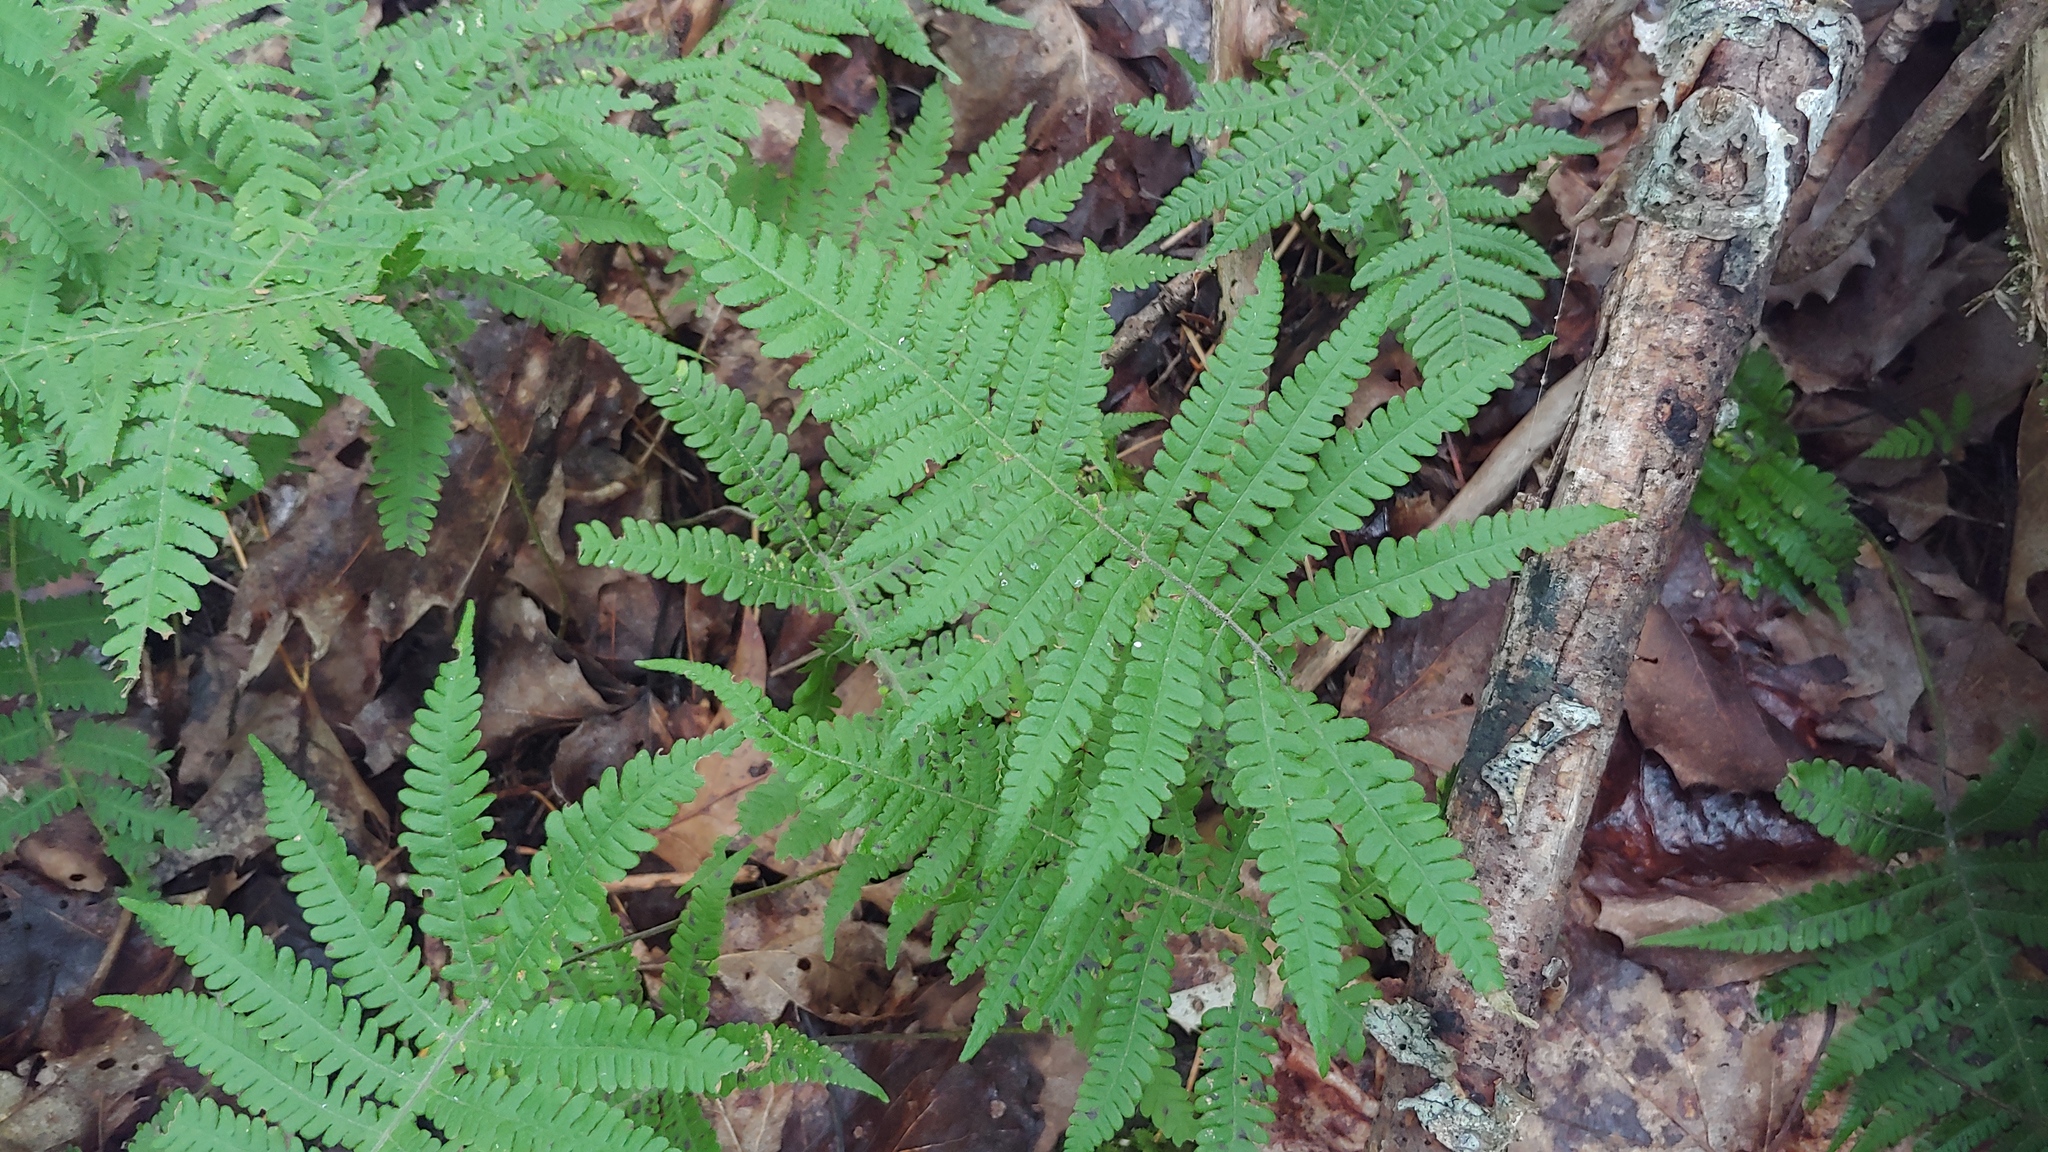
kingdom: Plantae
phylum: Tracheophyta
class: Polypodiopsida
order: Polypodiales
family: Thelypteridaceae
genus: Phegopteris
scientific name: Phegopteris connectilis
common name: Beech fern
